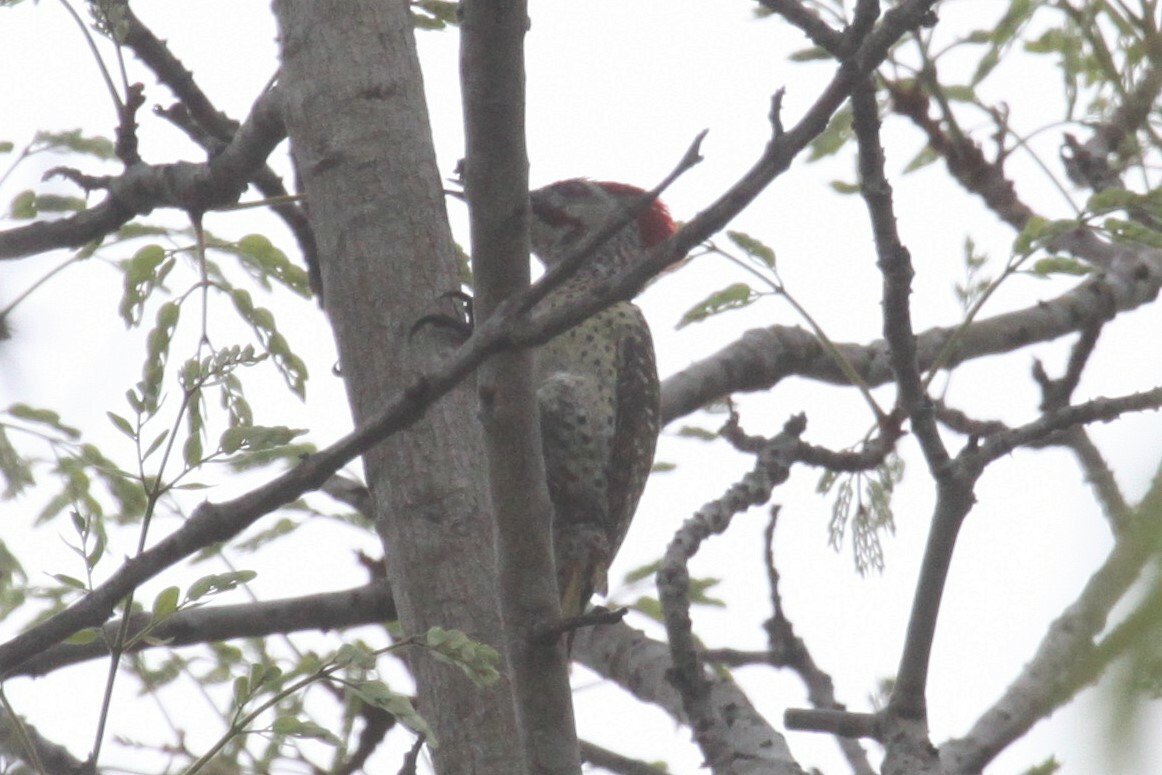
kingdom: Animalia
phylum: Chordata
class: Aves
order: Piciformes
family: Picidae
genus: Campethera
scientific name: Campethera scriptoricauda
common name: Speckle-throated woodpecker
